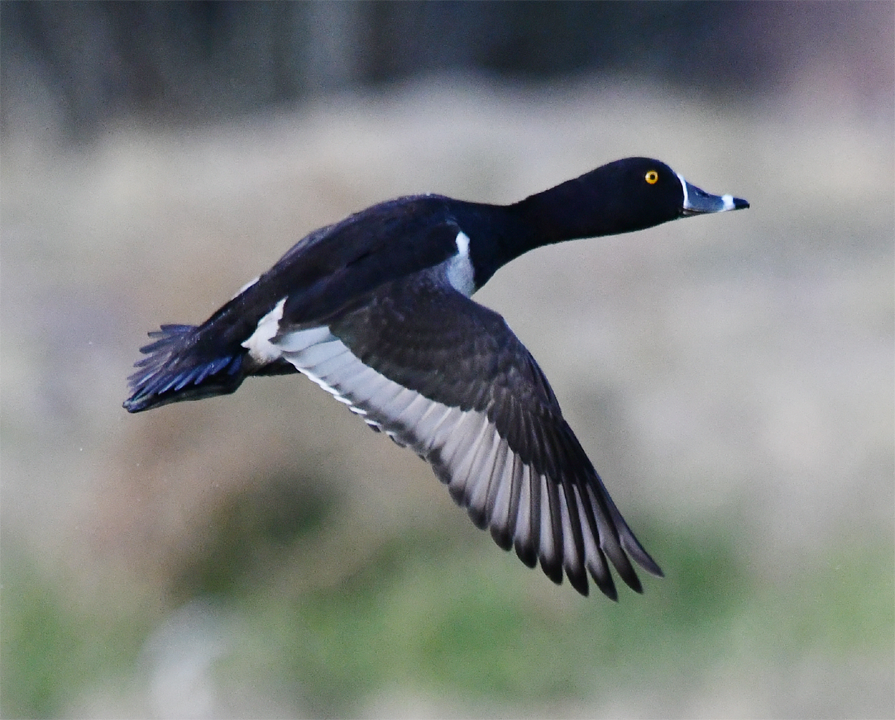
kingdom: Animalia
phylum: Chordata
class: Aves
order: Anseriformes
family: Anatidae
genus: Aythya
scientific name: Aythya collaris
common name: Ring-necked duck
